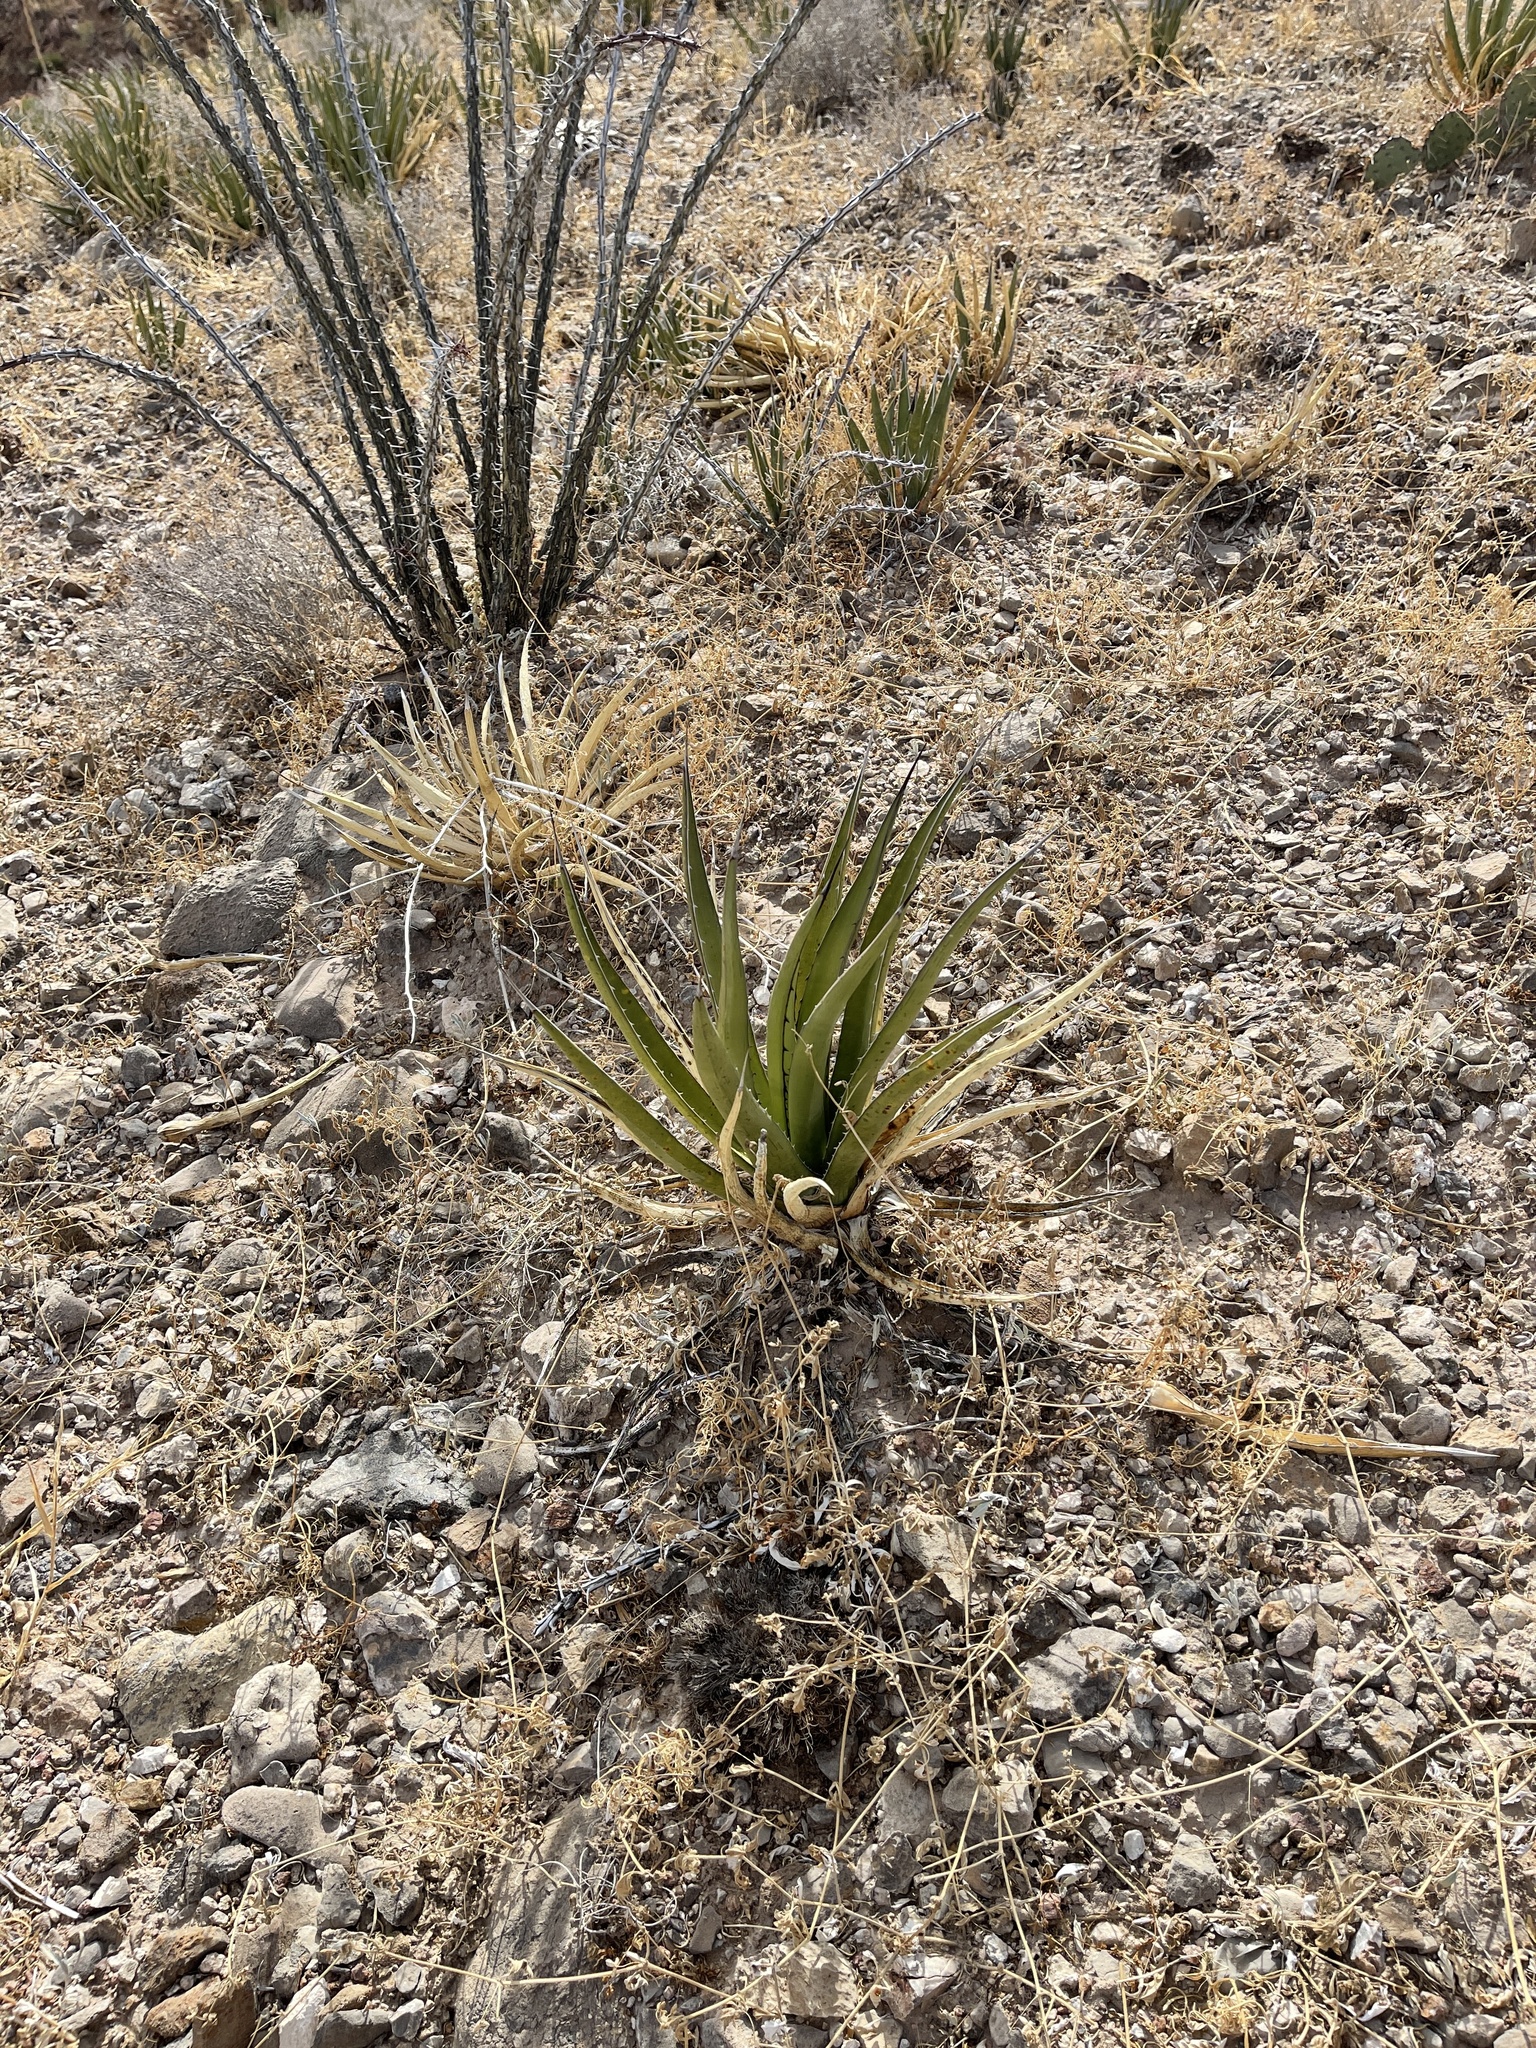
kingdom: Plantae
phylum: Tracheophyta
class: Liliopsida
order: Asparagales
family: Asparagaceae
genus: Agave
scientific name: Agave lechuguilla
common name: Lecheguilla agave
